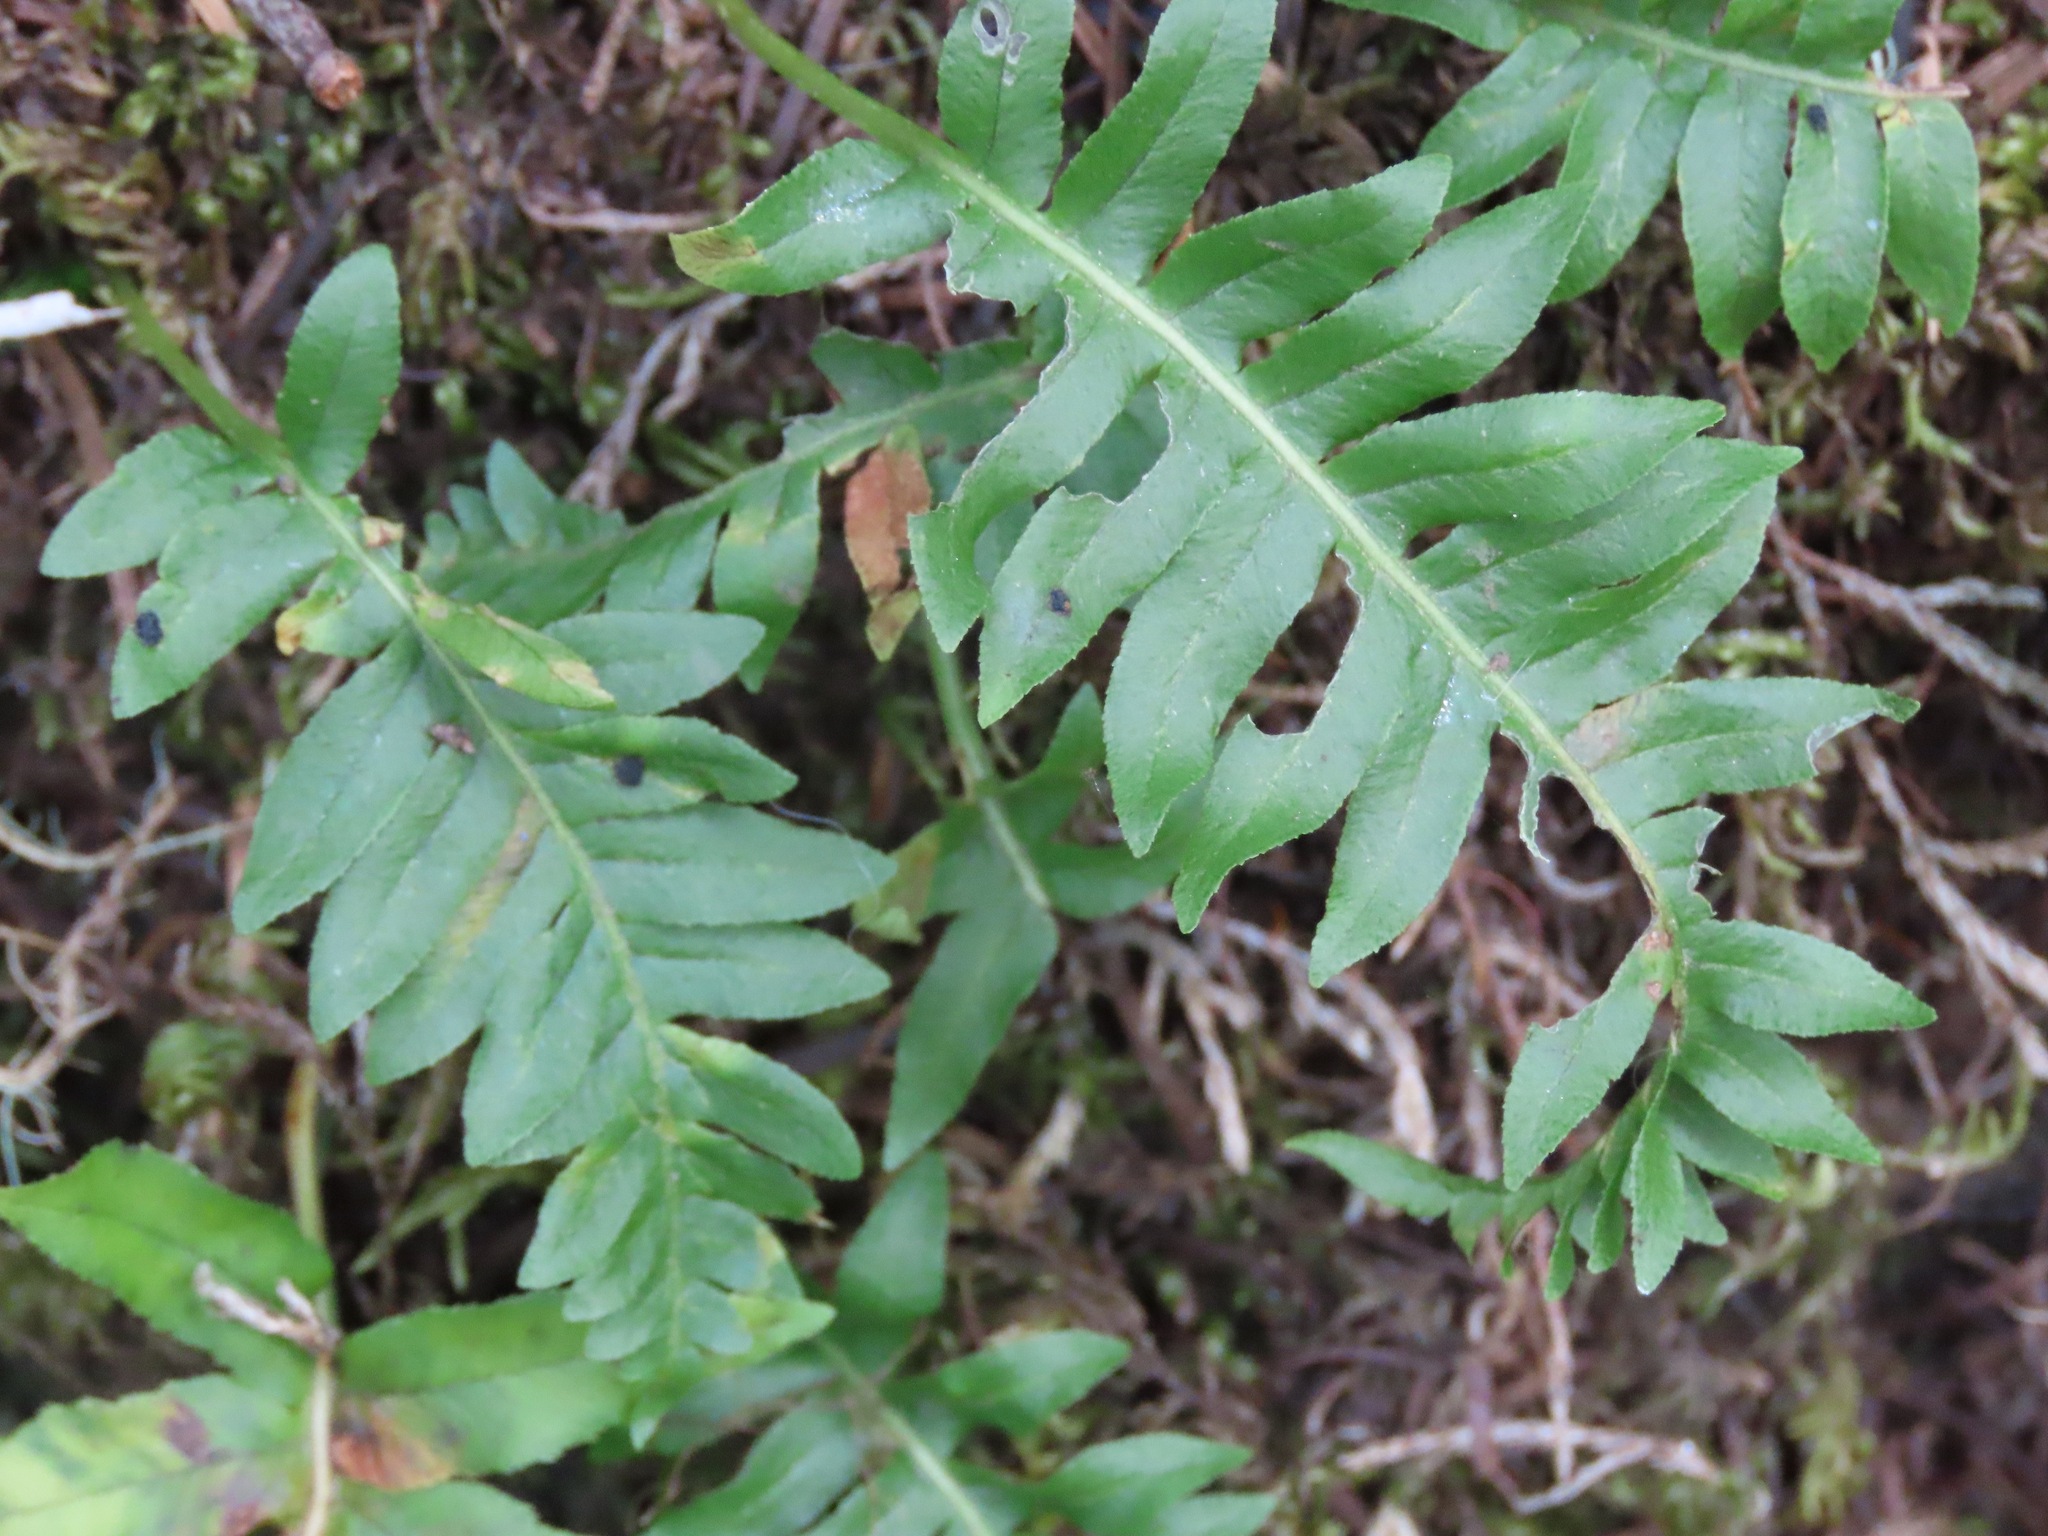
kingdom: Plantae
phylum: Tracheophyta
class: Polypodiopsida
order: Polypodiales
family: Polypodiaceae
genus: Polypodium
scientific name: Polypodium glycyrrhiza
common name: Licorice fern
